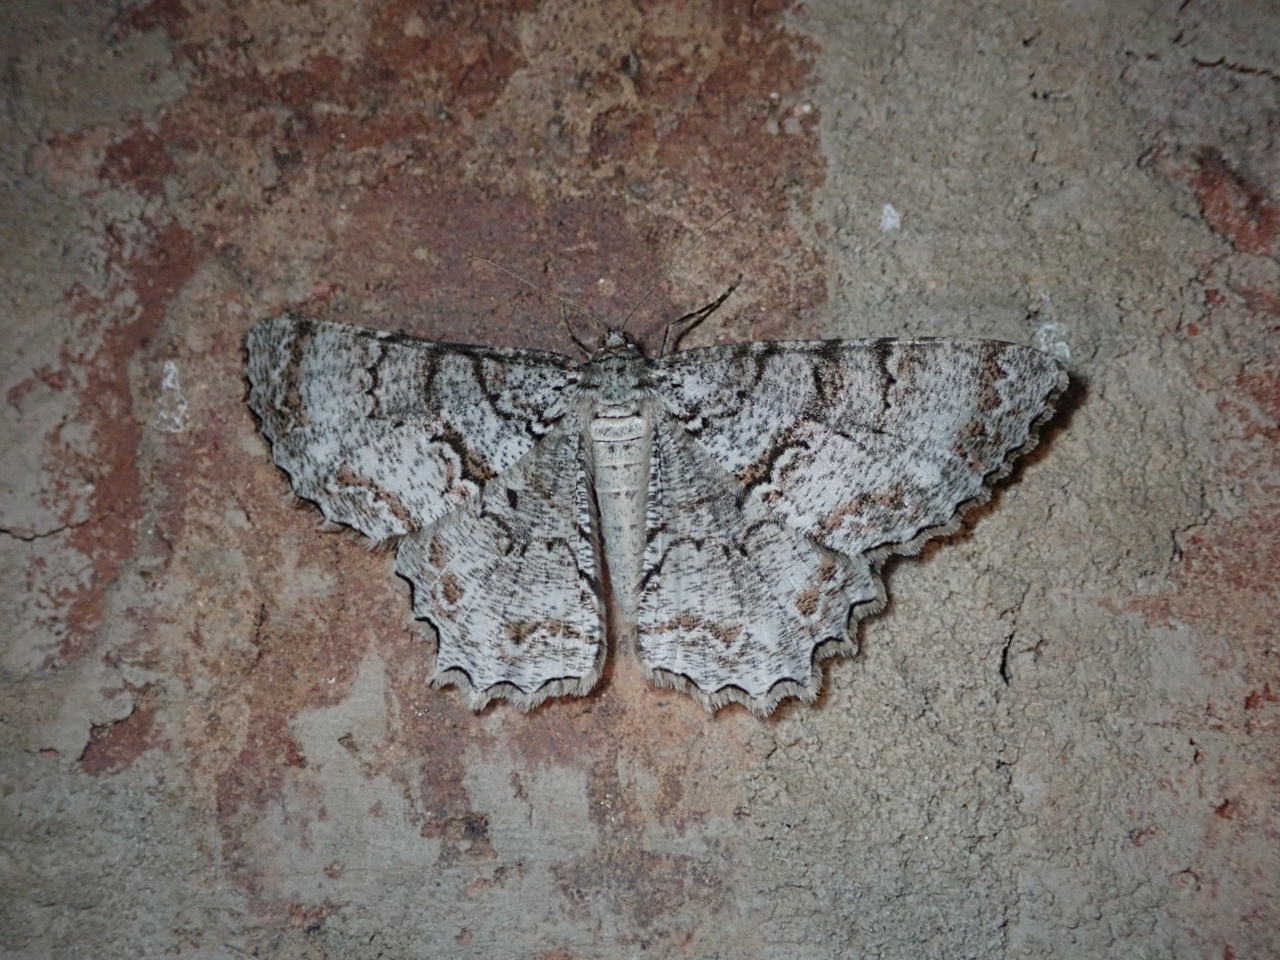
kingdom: Animalia
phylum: Arthropoda
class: Insecta
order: Lepidoptera
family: Geometridae
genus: Epimecis
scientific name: Epimecis hortaria
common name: Tulip-tree beauty
